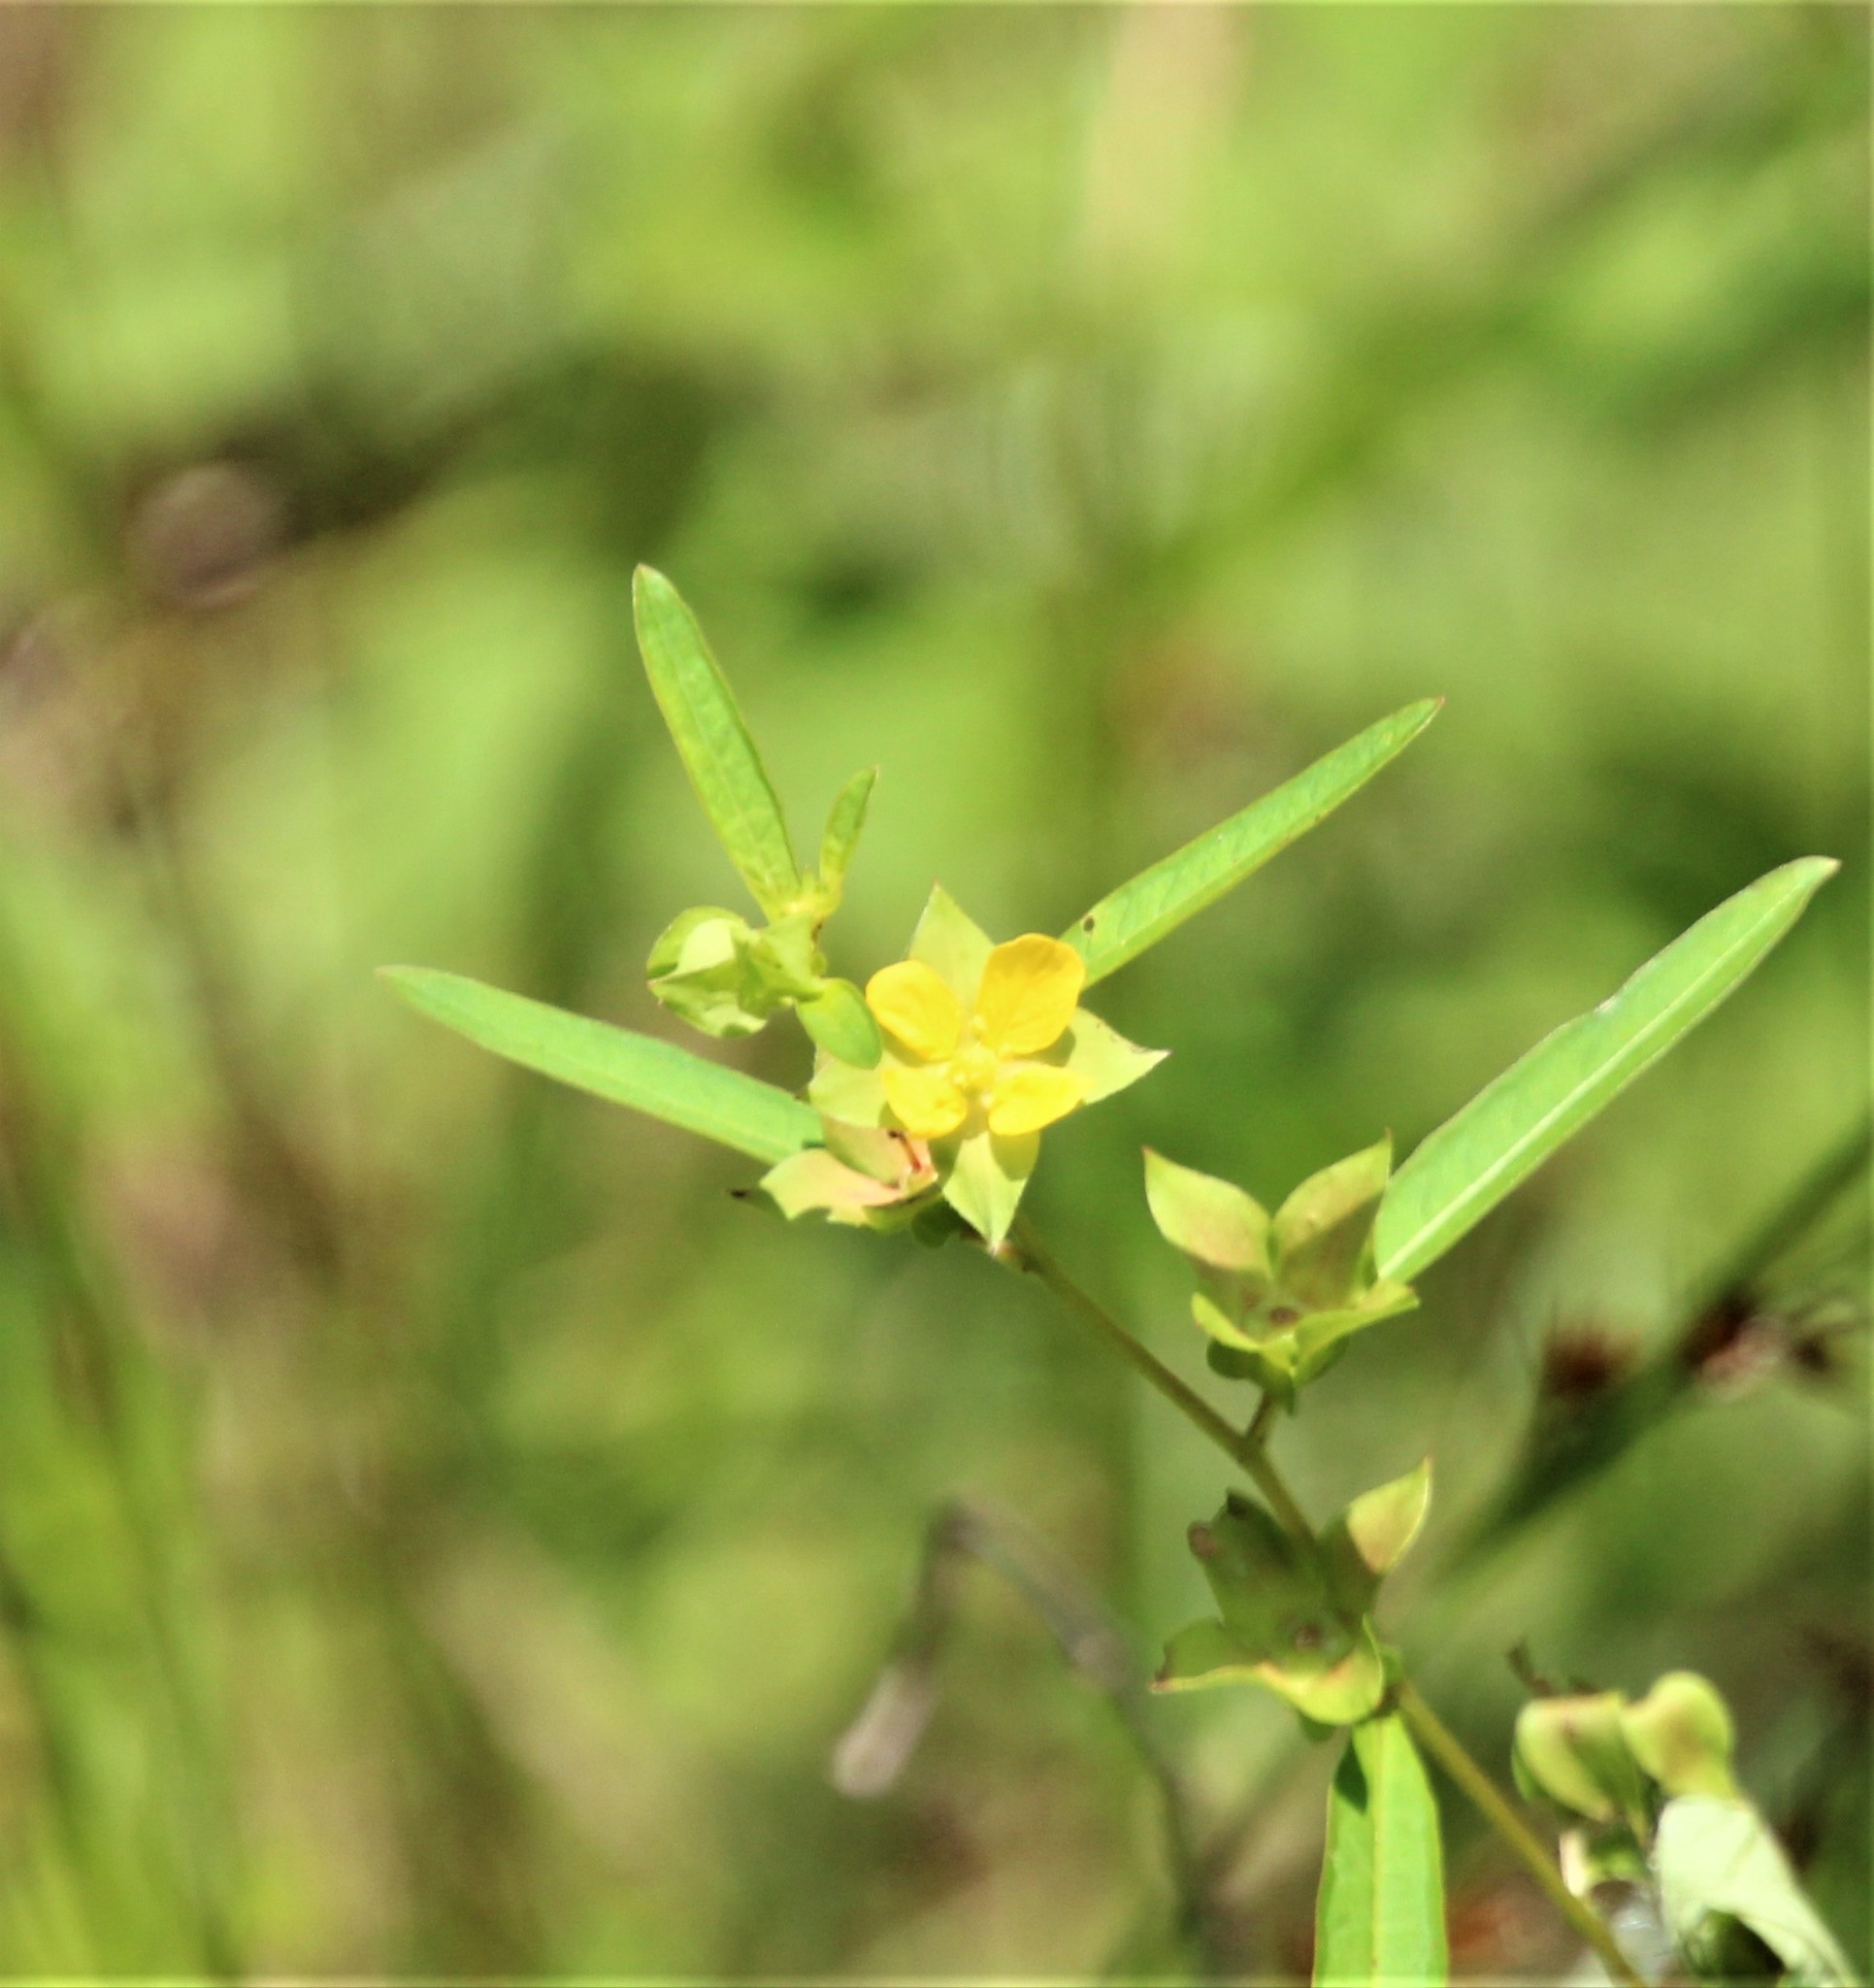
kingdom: Plantae
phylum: Tracheophyta
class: Magnoliopsida
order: Myrtales
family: Onagraceae
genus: Ludwigia
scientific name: Ludwigia alternifolia
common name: Rattlebox
